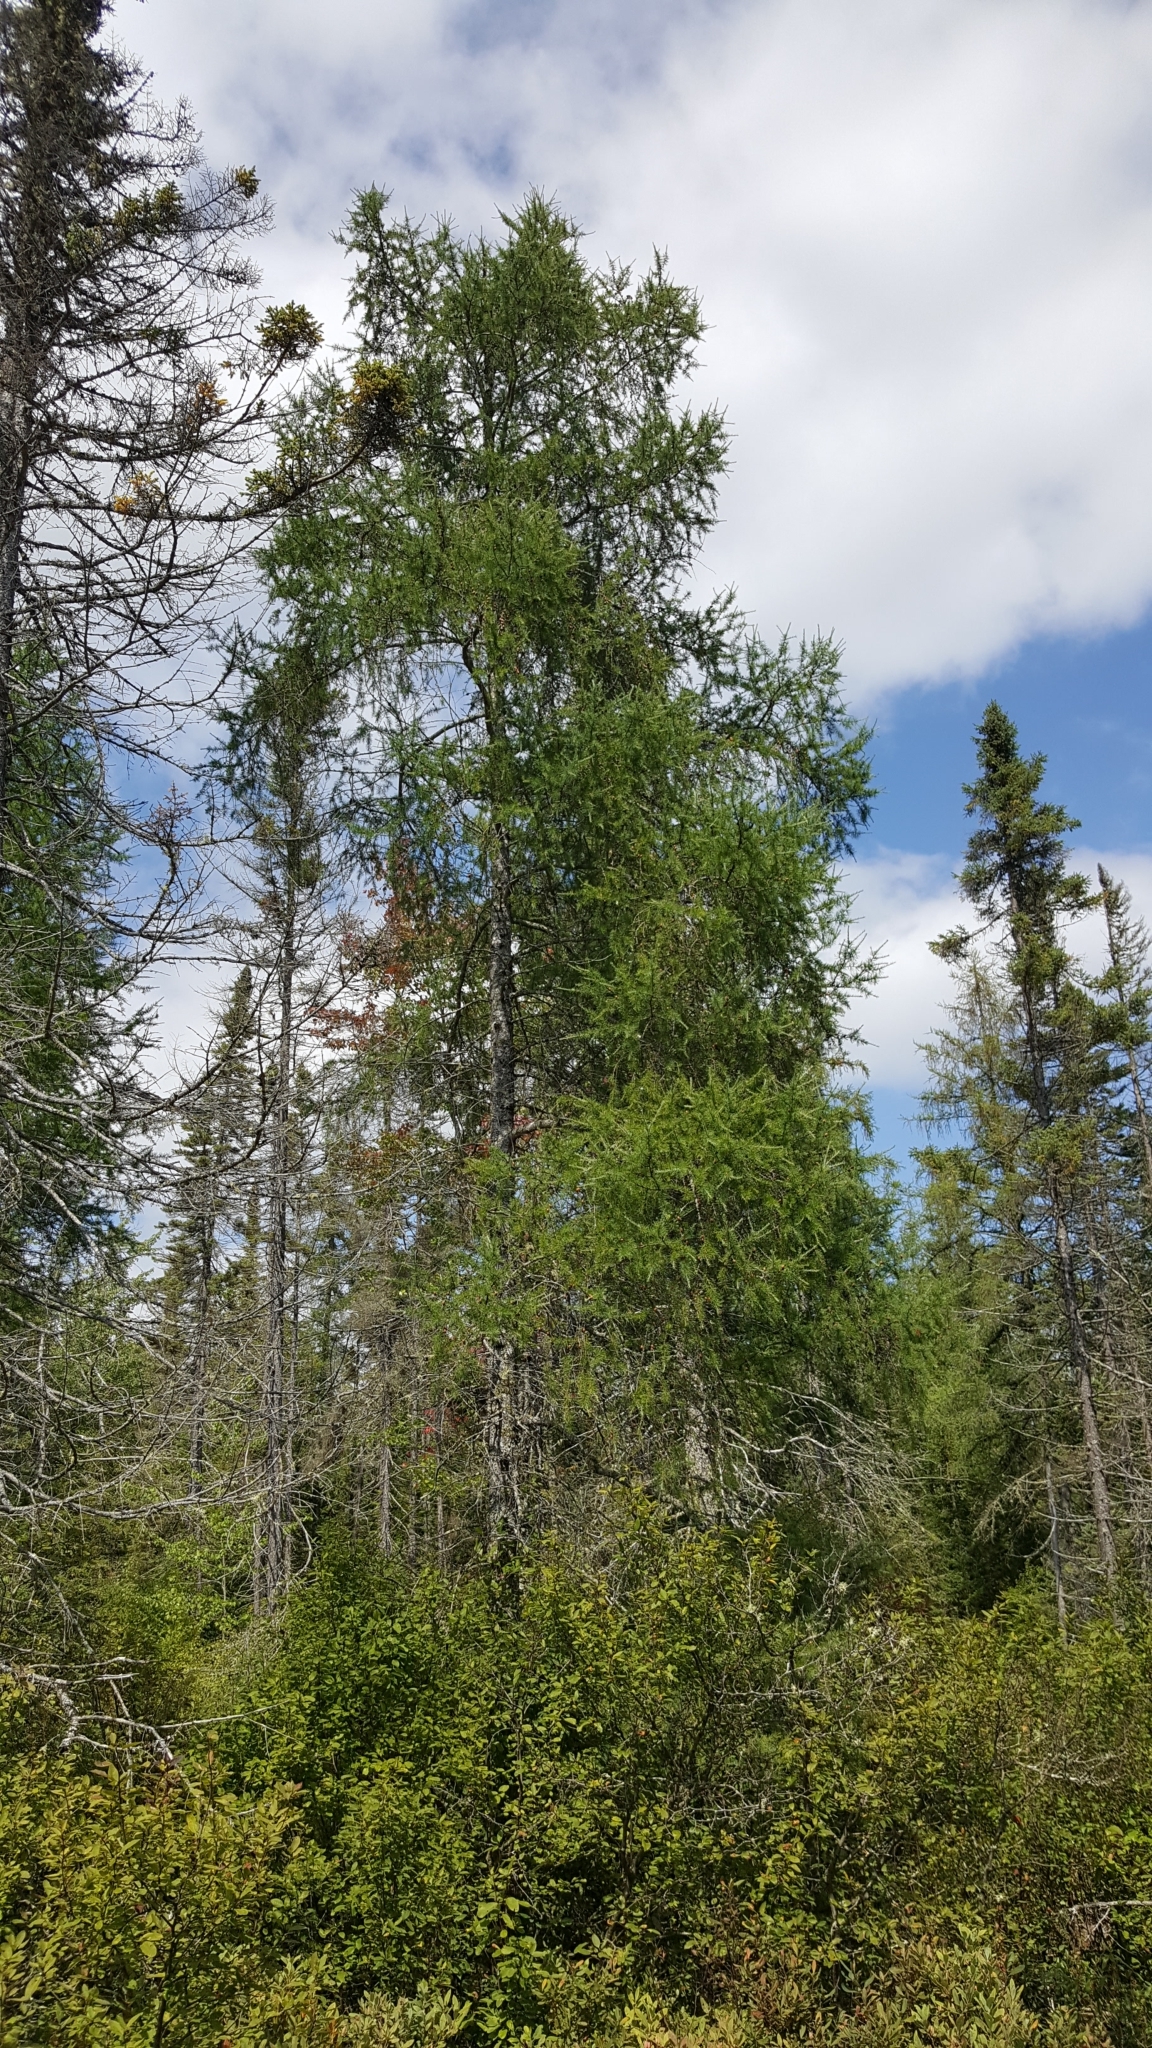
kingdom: Plantae
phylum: Tracheophyta
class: Pinopsida
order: Pinales
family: Pinaceae
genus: Larix
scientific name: Larix laricina
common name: American larch
